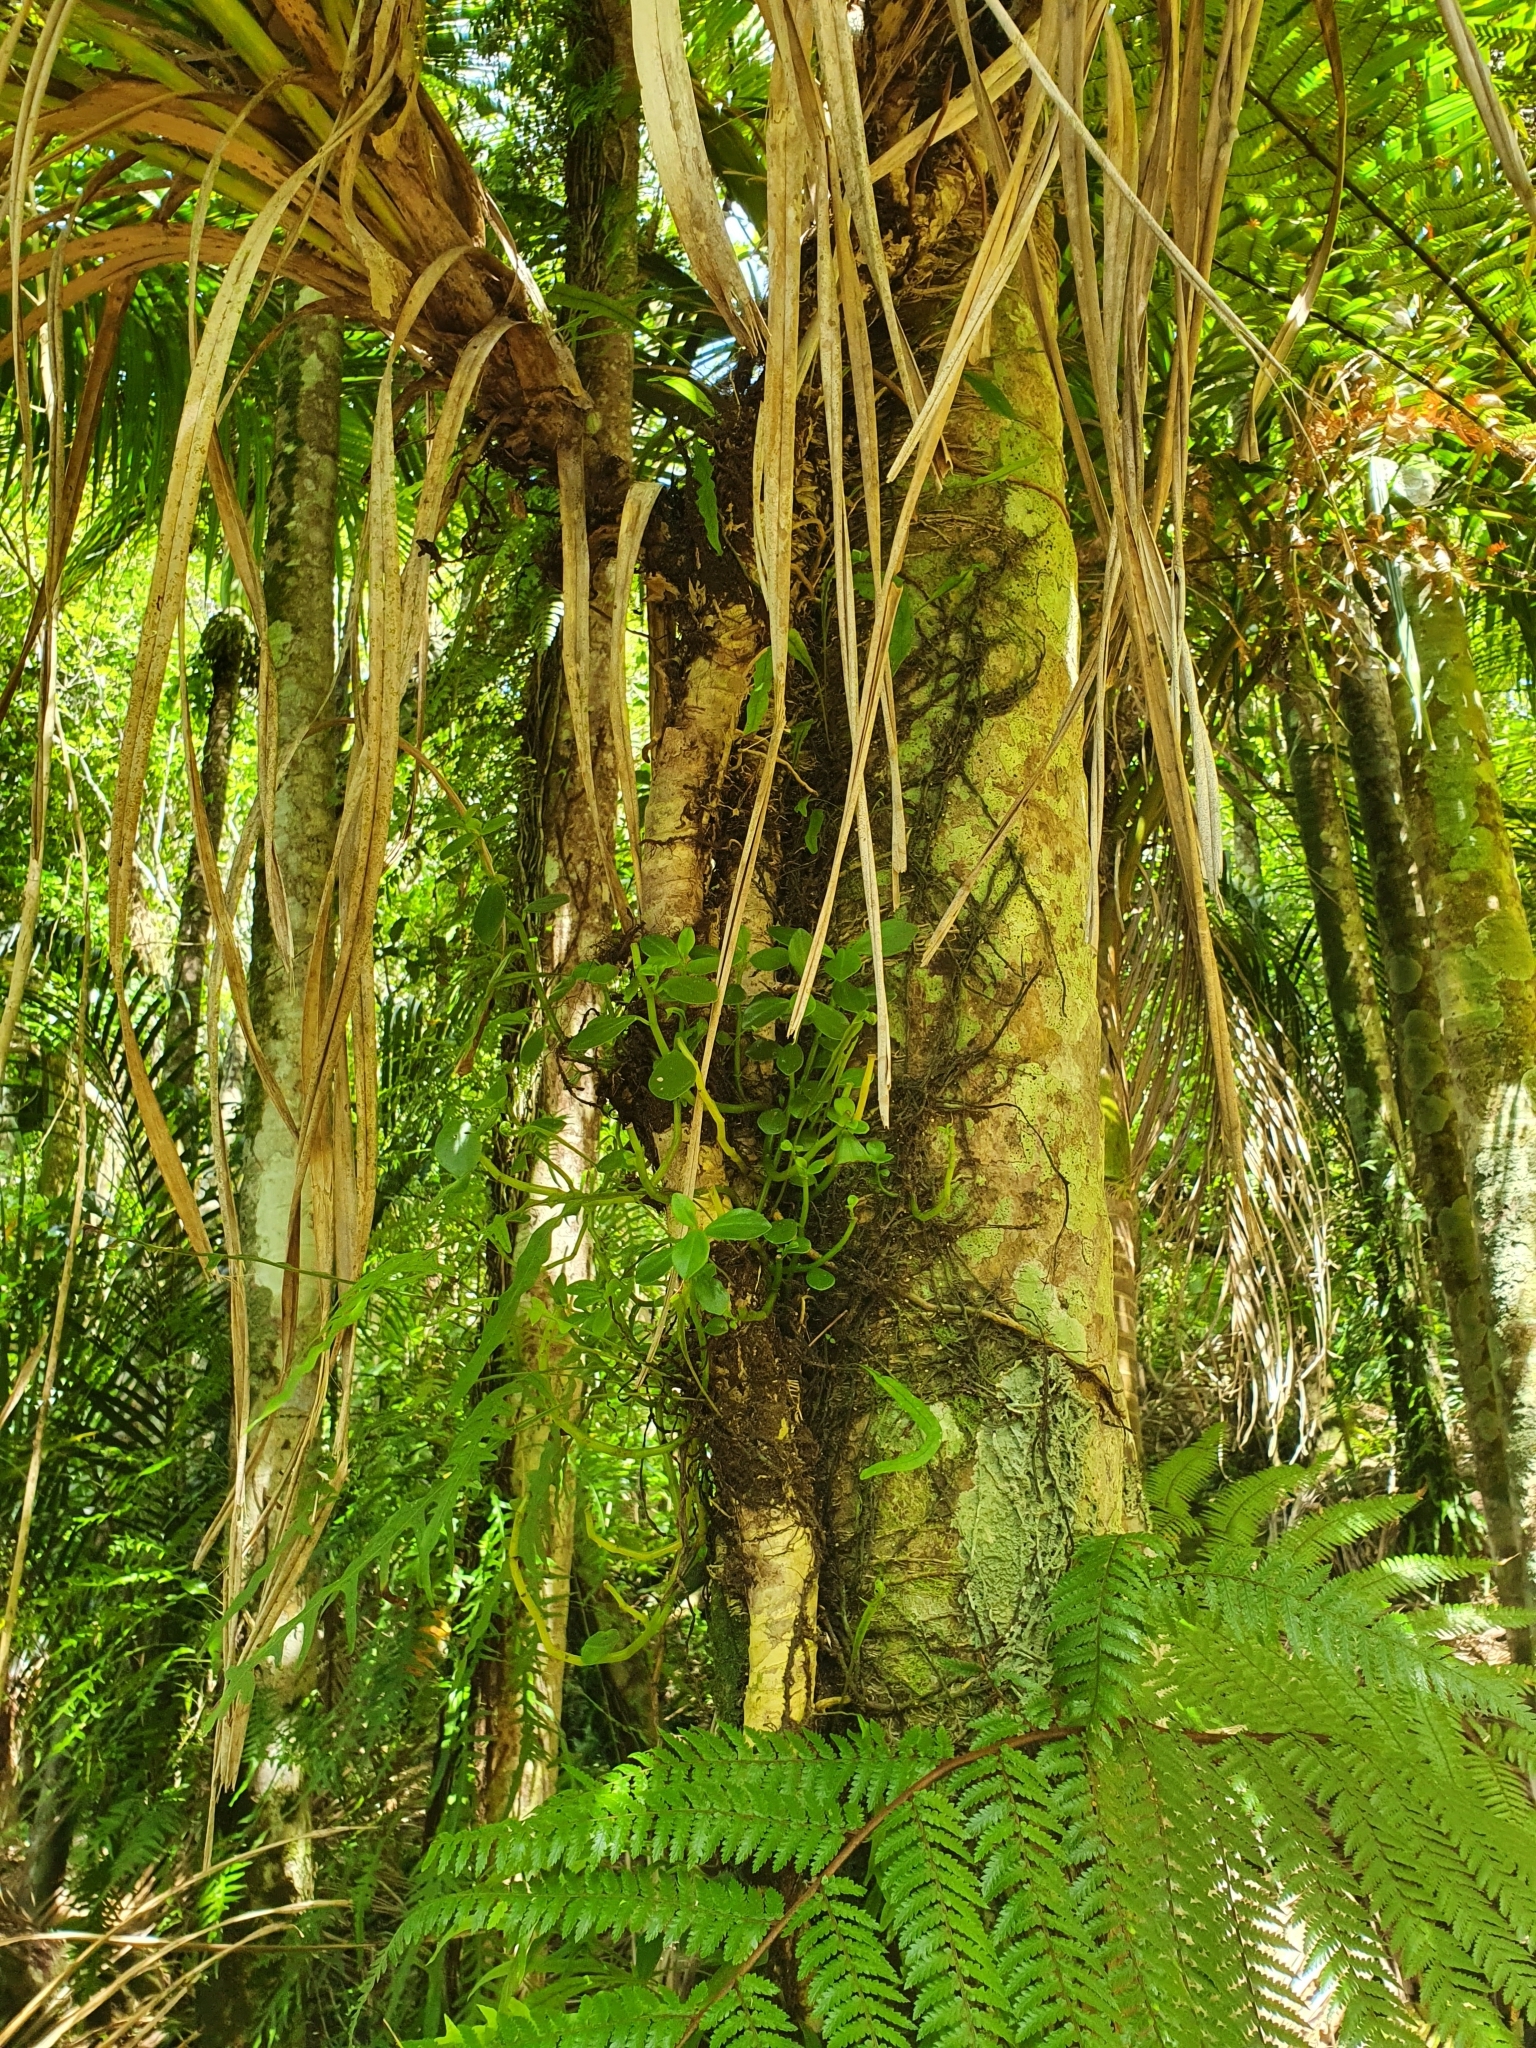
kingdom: Plantae
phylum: Tracheophyta
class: Magnoliopsida
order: Piperales
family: Piperaceae
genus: Peperomia
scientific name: Peperomia urvilleana
